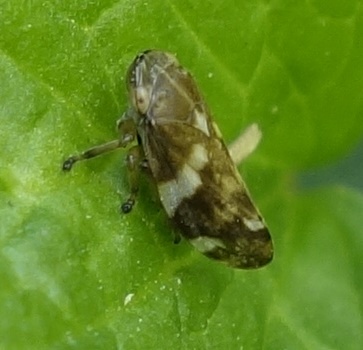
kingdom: Animalia
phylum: Arthropoda
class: Insecta
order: Hemiptera
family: Aphrophoridae
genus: Philaenus
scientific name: Philaenus spumarius
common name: Meadow spittlebug
